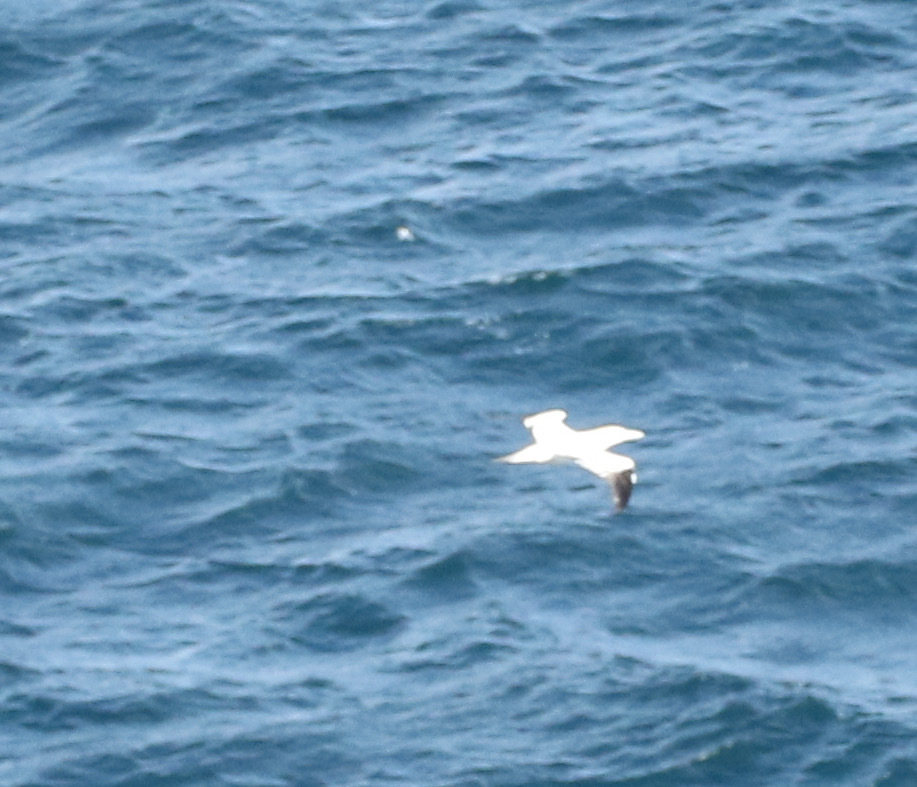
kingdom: Animalia
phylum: Chordata
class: Aves
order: Suliformes
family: Sulidae
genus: Morus
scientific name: Morus bassanus
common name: Northern gannet
